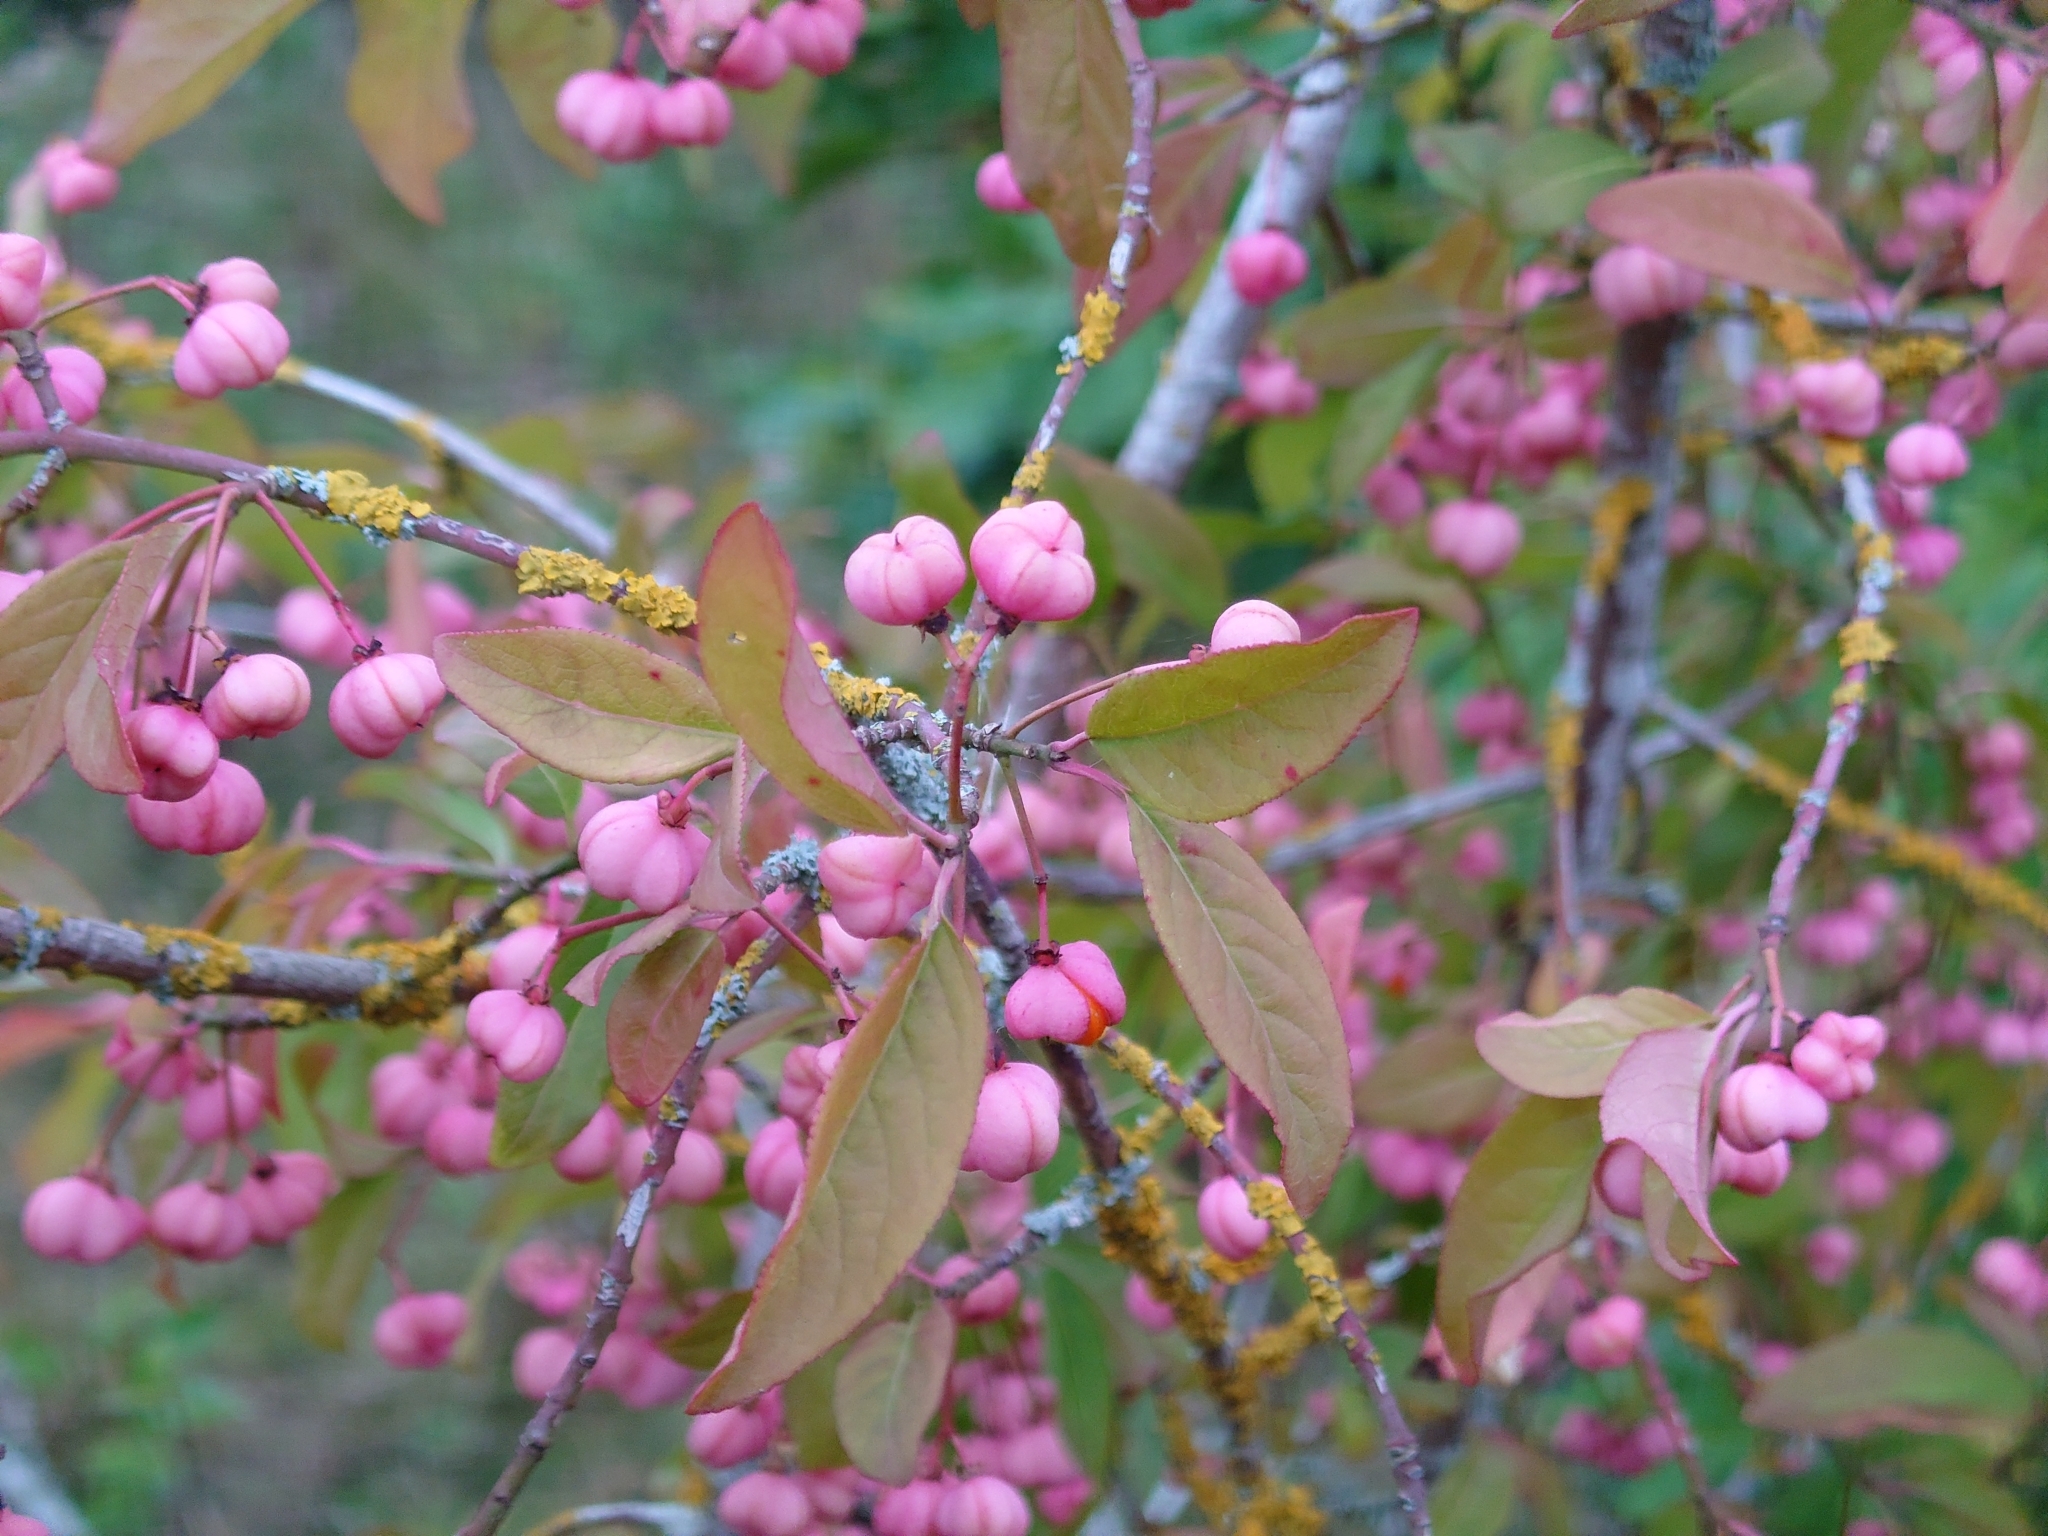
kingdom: Plantae
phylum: Tracheophyta
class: Magnoliopsida
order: Celastrales
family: Celastraceae
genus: Euonymus
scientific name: Euonymus europaeus
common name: Spindle
